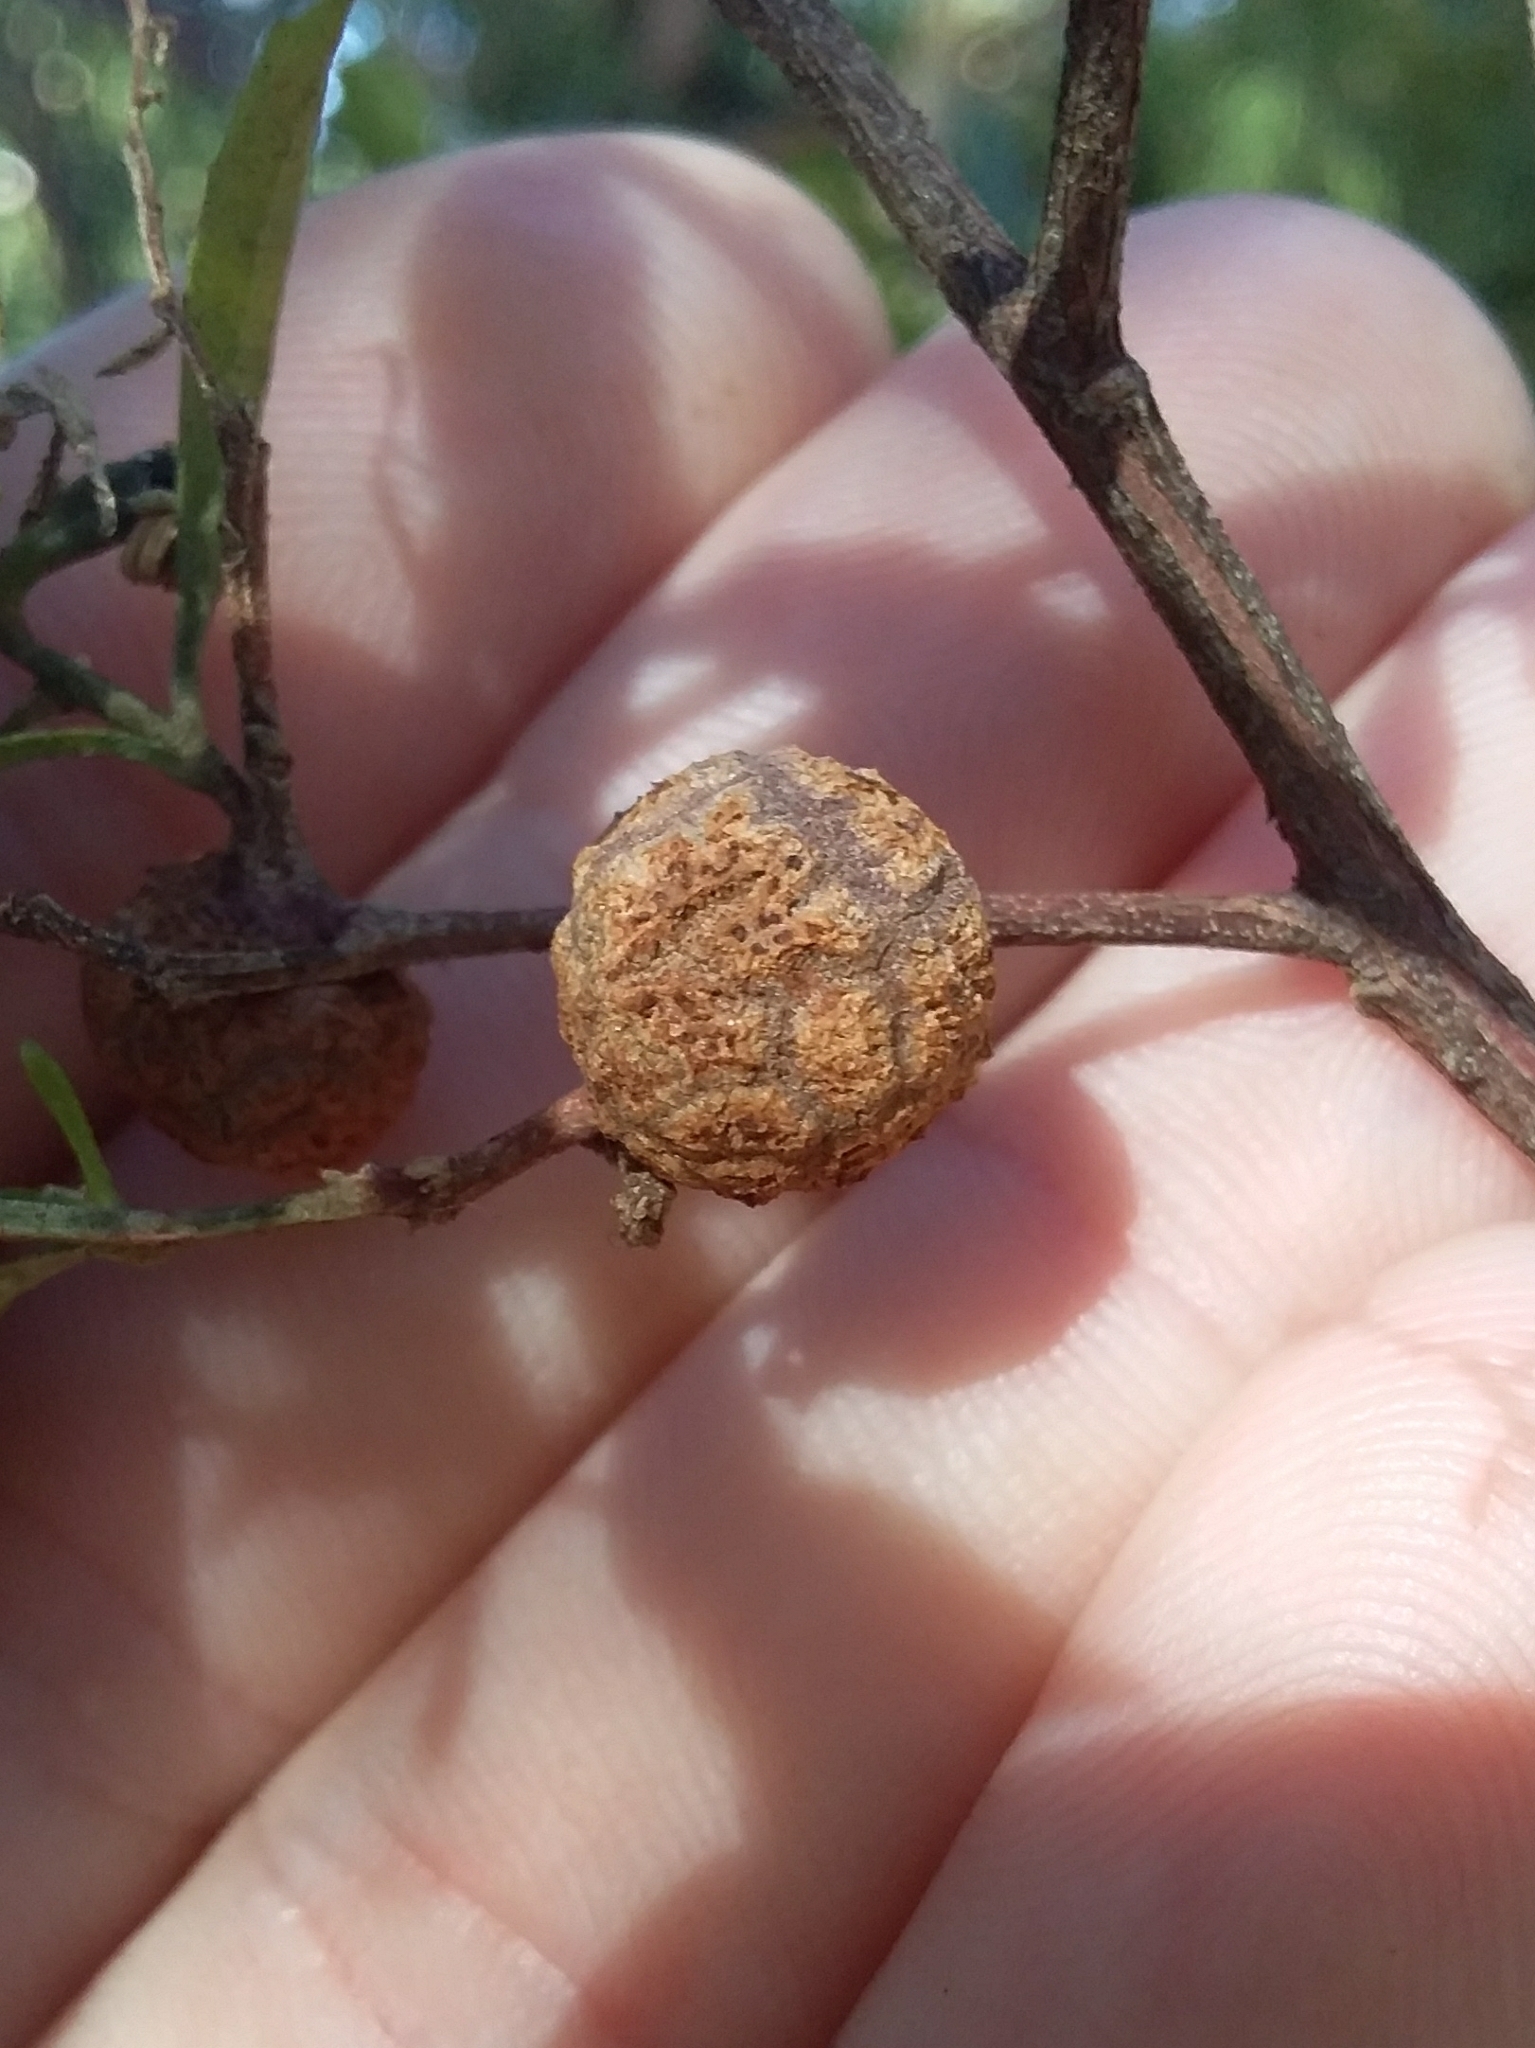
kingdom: Animalia
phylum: Arthropoda
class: Insecta
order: Diptera
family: Cecidomyiidae
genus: Asphondylia
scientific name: Asphondylia dodonaeae
